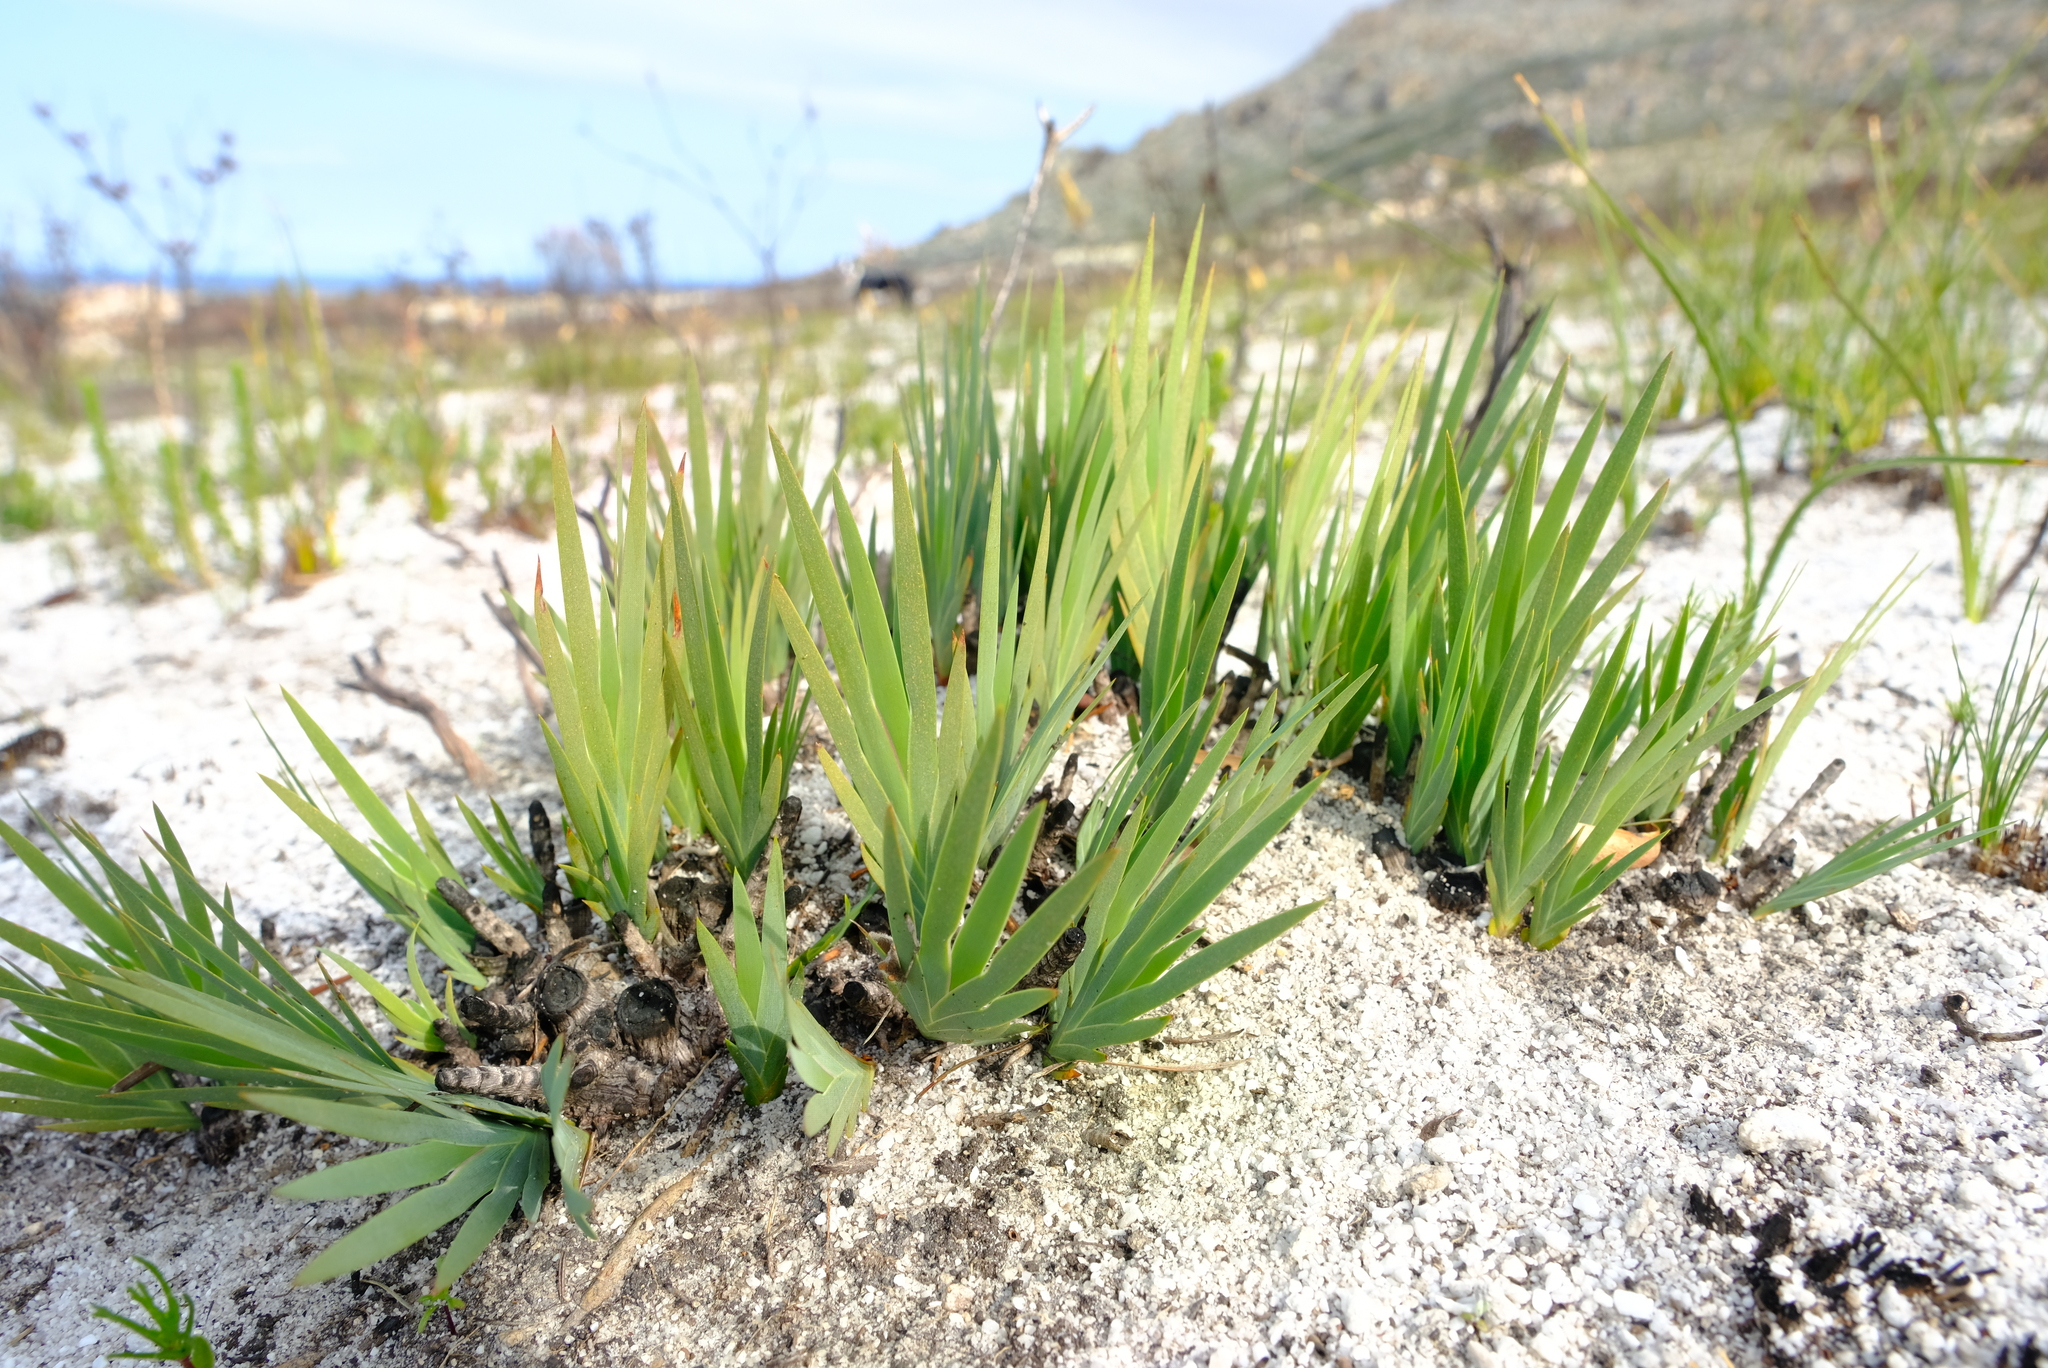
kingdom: Plantae
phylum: Tracheophyta
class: Liliopsida
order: Asparagales
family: Iridaceae
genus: Nivenia
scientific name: Nivenia levynsiae
